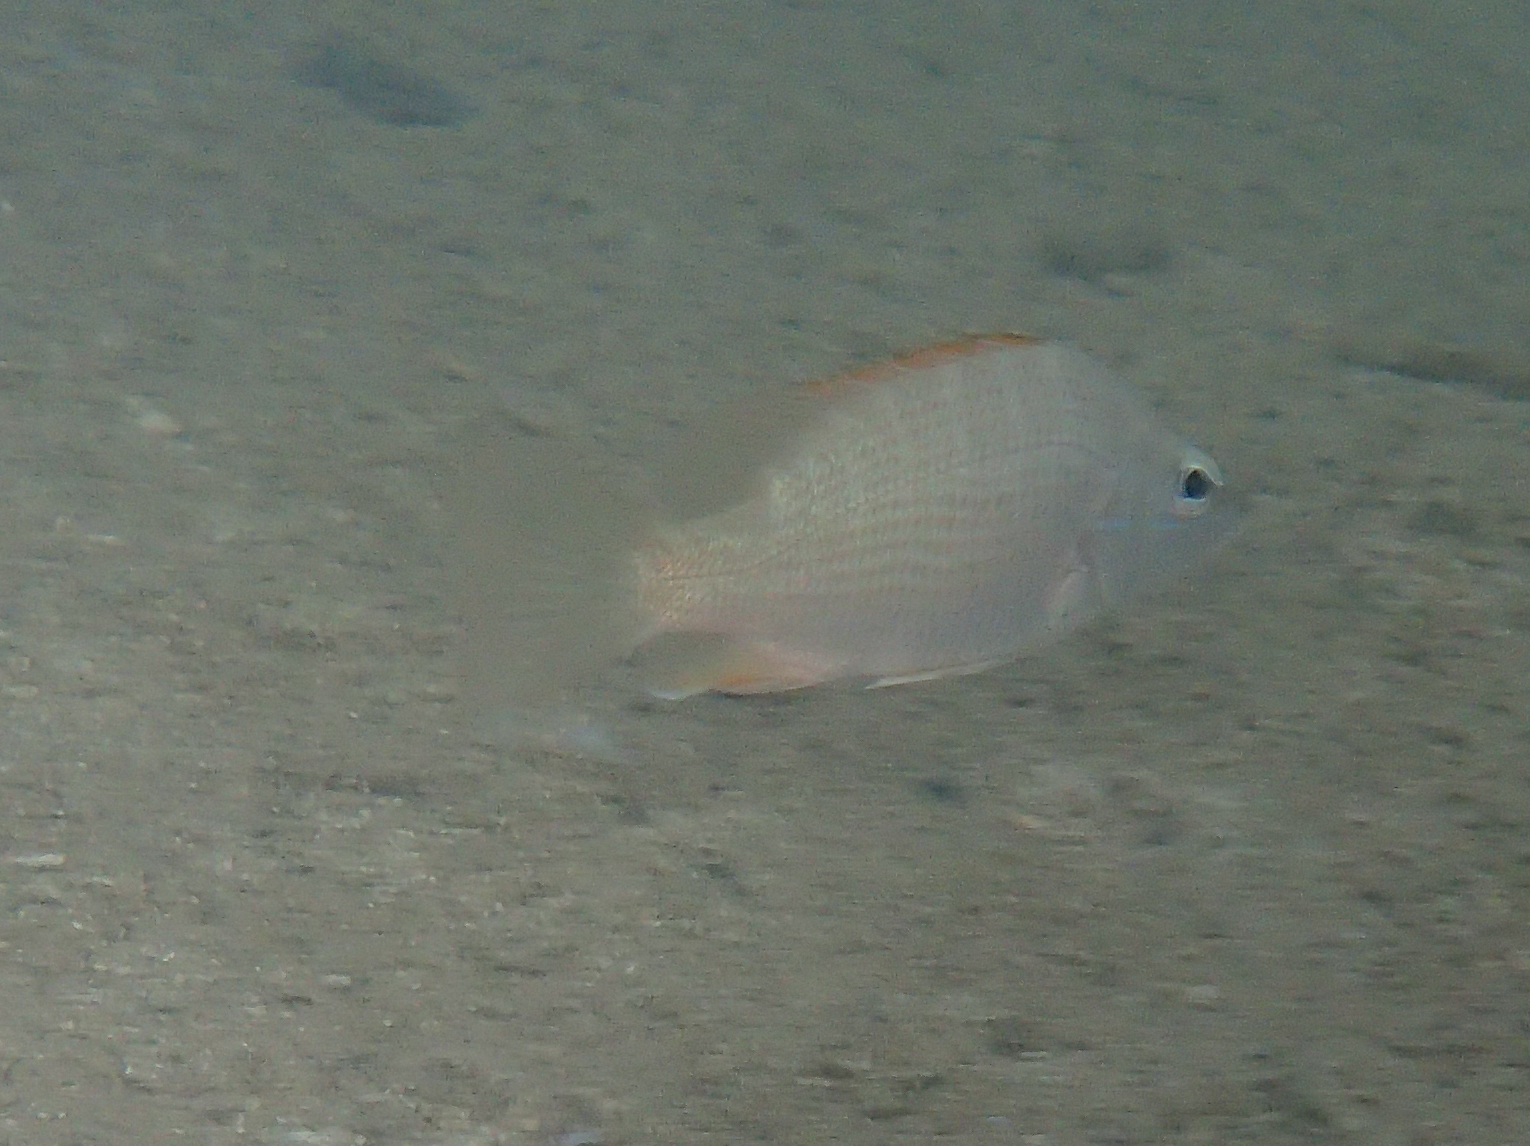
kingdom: Animalia
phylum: Chordata
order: Perciformes
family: Lutjanidae
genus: Lutjanus
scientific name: Lutjanus argentiventris
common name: Yellow snapper
